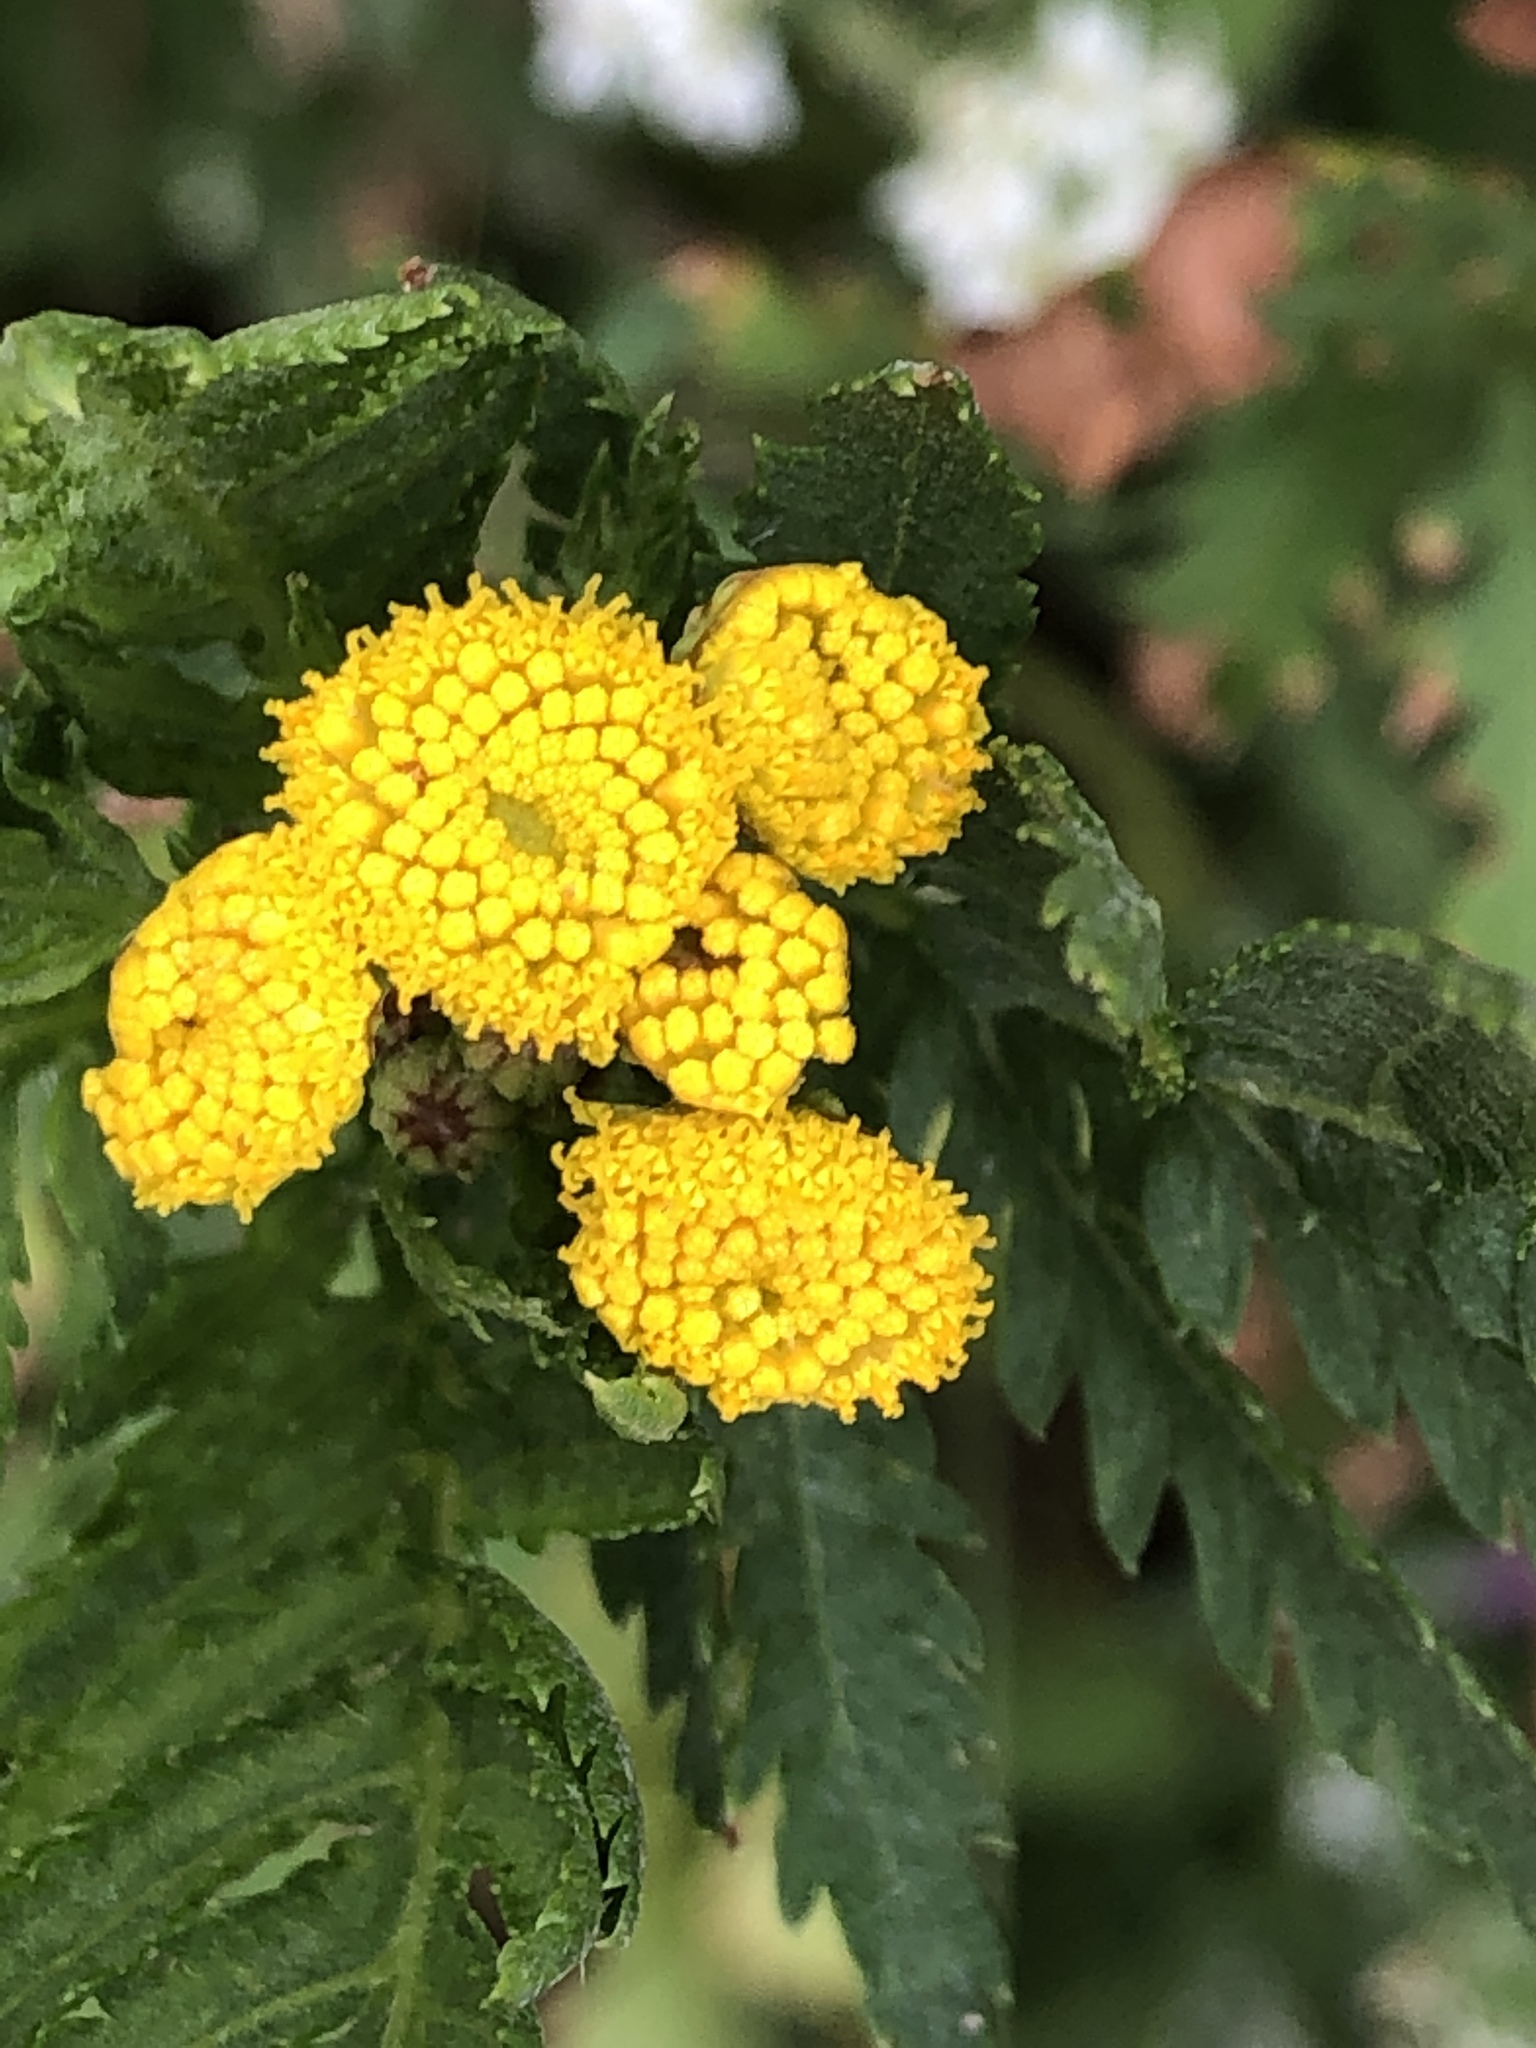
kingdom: Plantae
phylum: Tracheophyta
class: Magnoliopsida
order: Asterales
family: Asteraceae
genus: Tanacetum
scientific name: Tanacetum vulgare
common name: Common tansy
